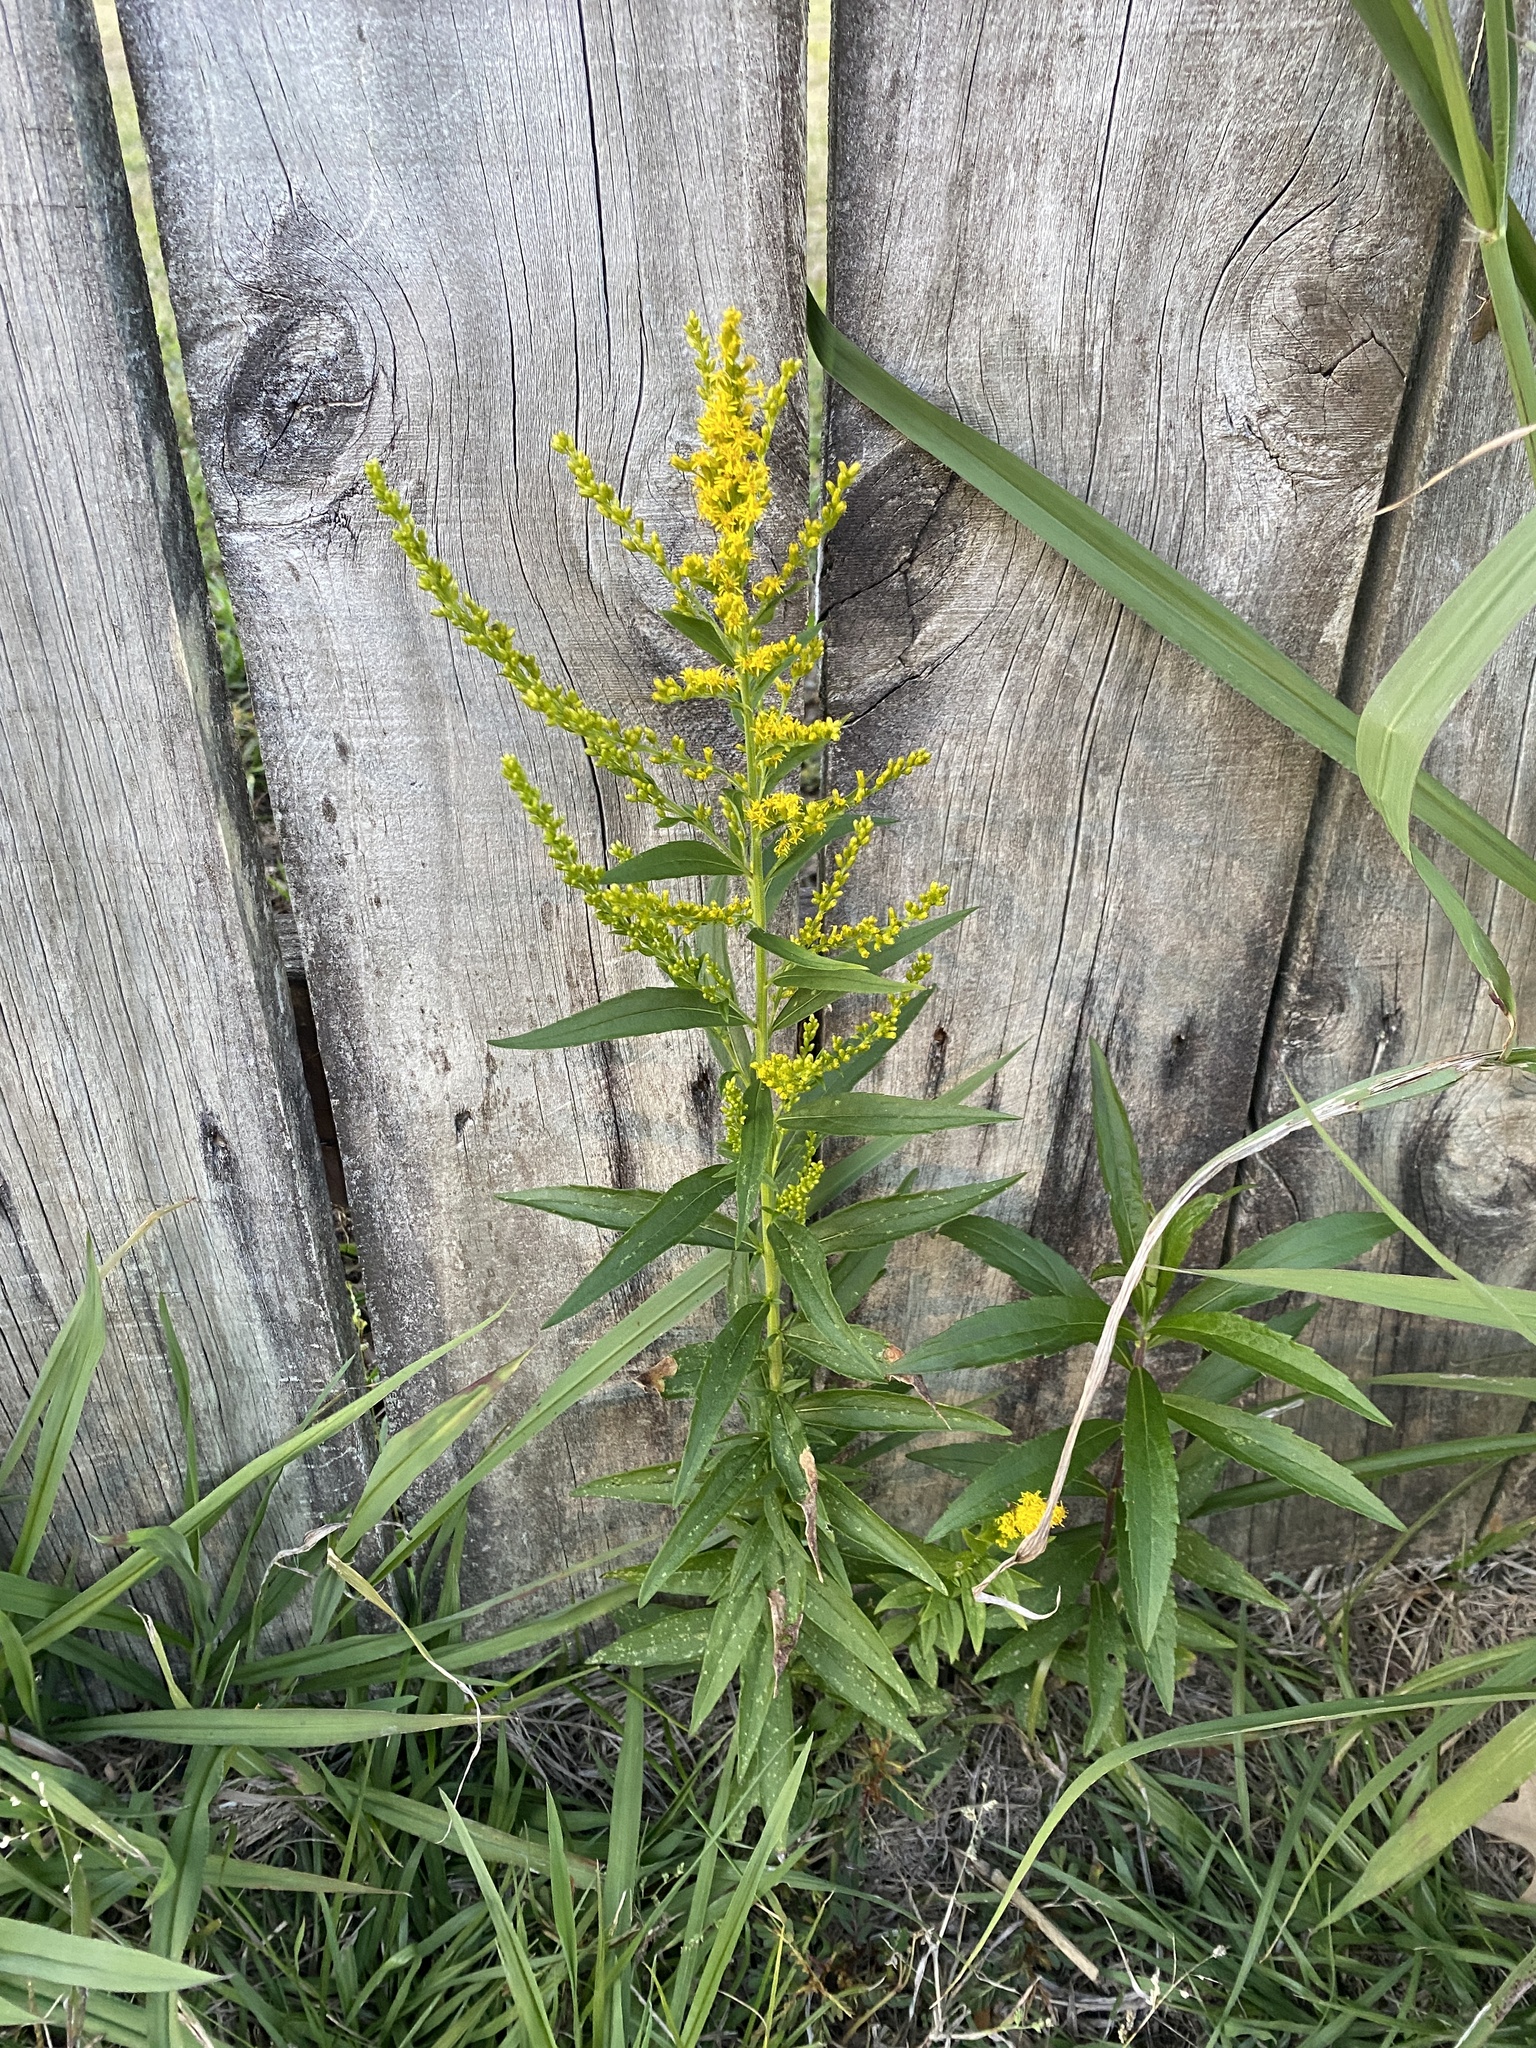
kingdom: Plantae
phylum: Tracheophyta
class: Magnoliopsida
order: Asterales
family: Asteraceae
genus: Solidago
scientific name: Solidago altissima
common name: Late goldenrod
